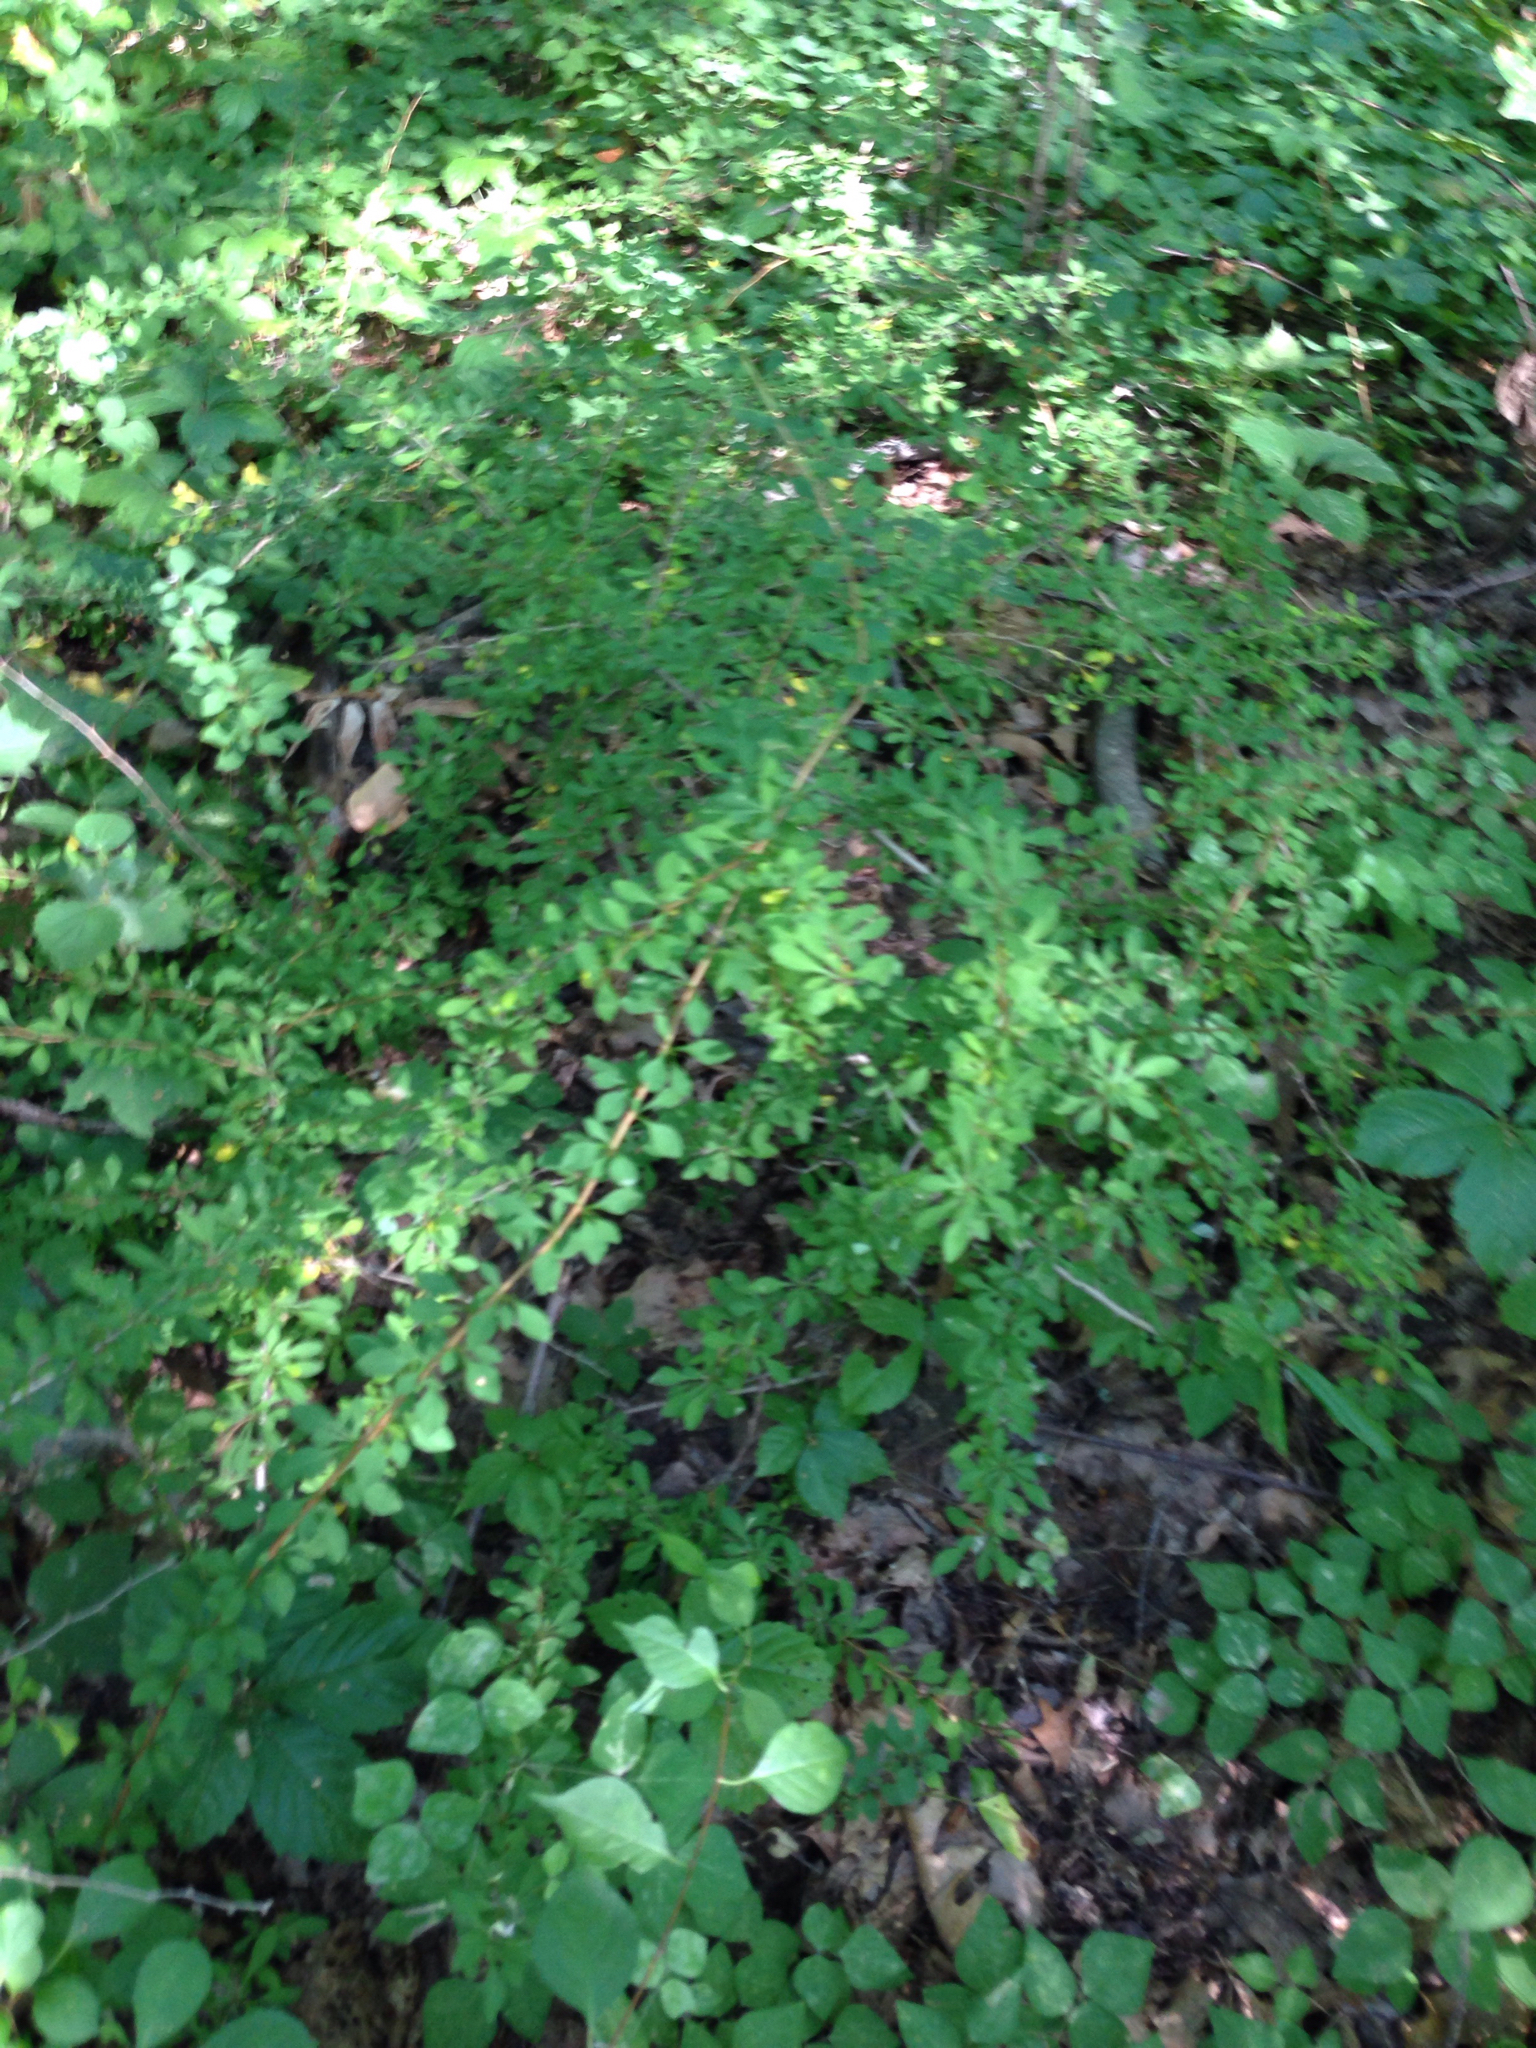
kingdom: Plantae
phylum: Tracheophyta
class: Magnoliopsida
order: Ranunculales
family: Berberidaceae
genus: Berberis
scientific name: Berberis thunbergii
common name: Japanese barberry
